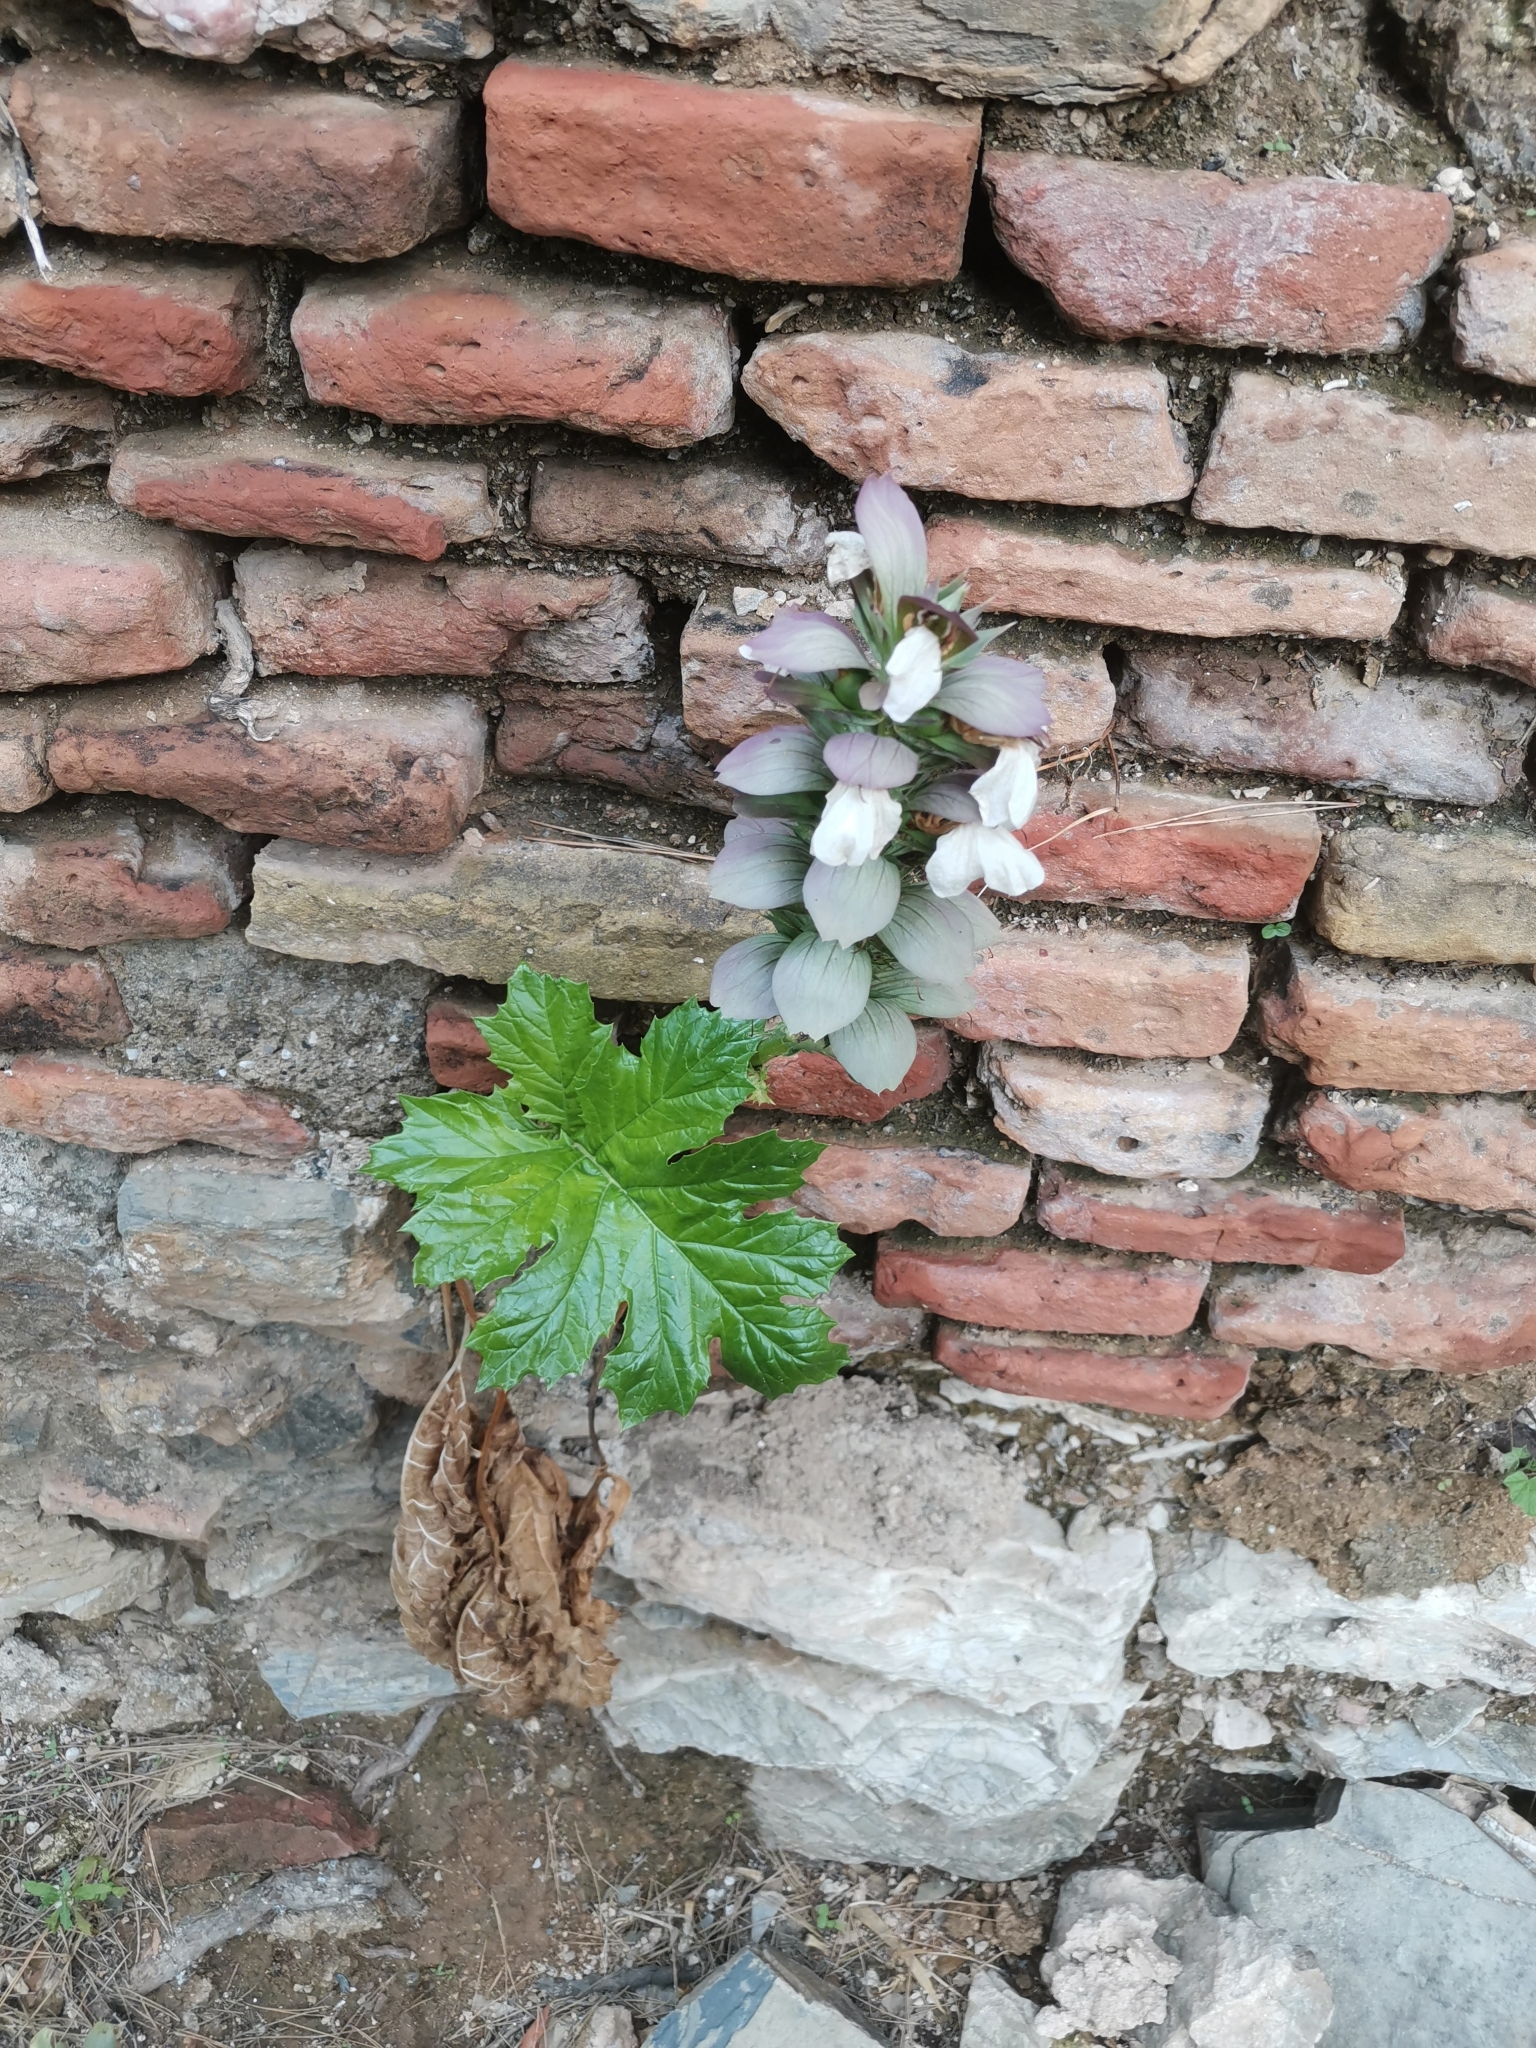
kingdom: Plantae
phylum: Tracheophyta
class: Magnoliopsida
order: Lamiales
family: Acanthaceae
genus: Acanthus
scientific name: Acanthus mollis
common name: Bear's-breech
